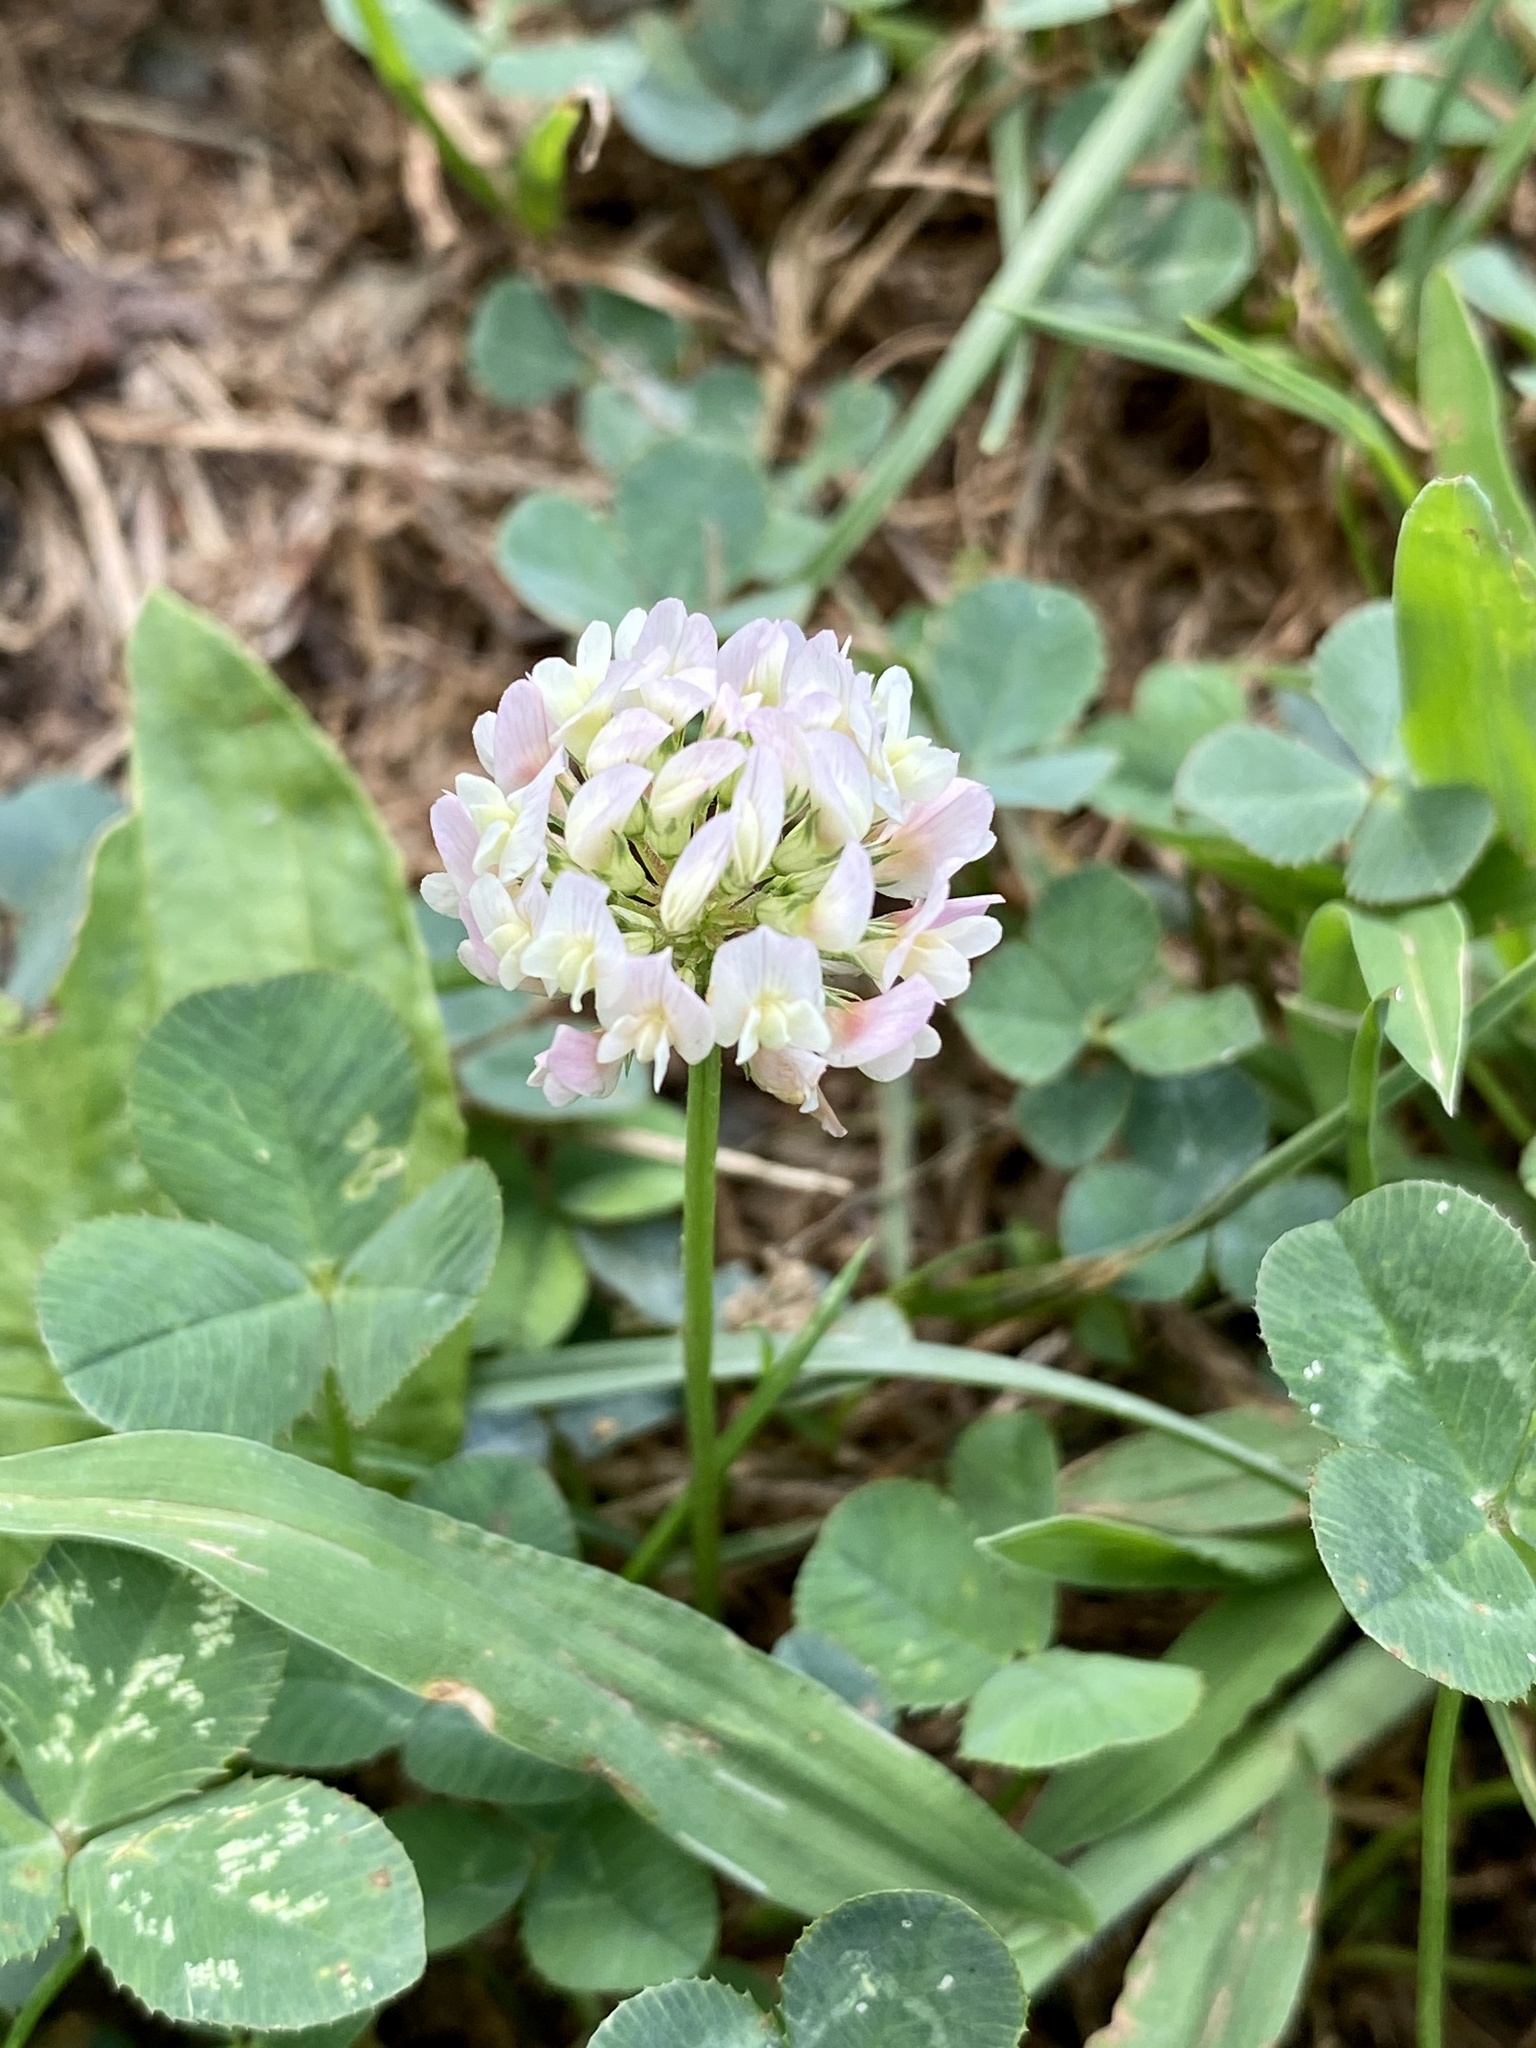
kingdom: Plantae
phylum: Tracheophyta
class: Magnoliopsida
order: Fabales
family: Fabaceae
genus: Trifolium
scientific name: Trifolium repens
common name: White clover
